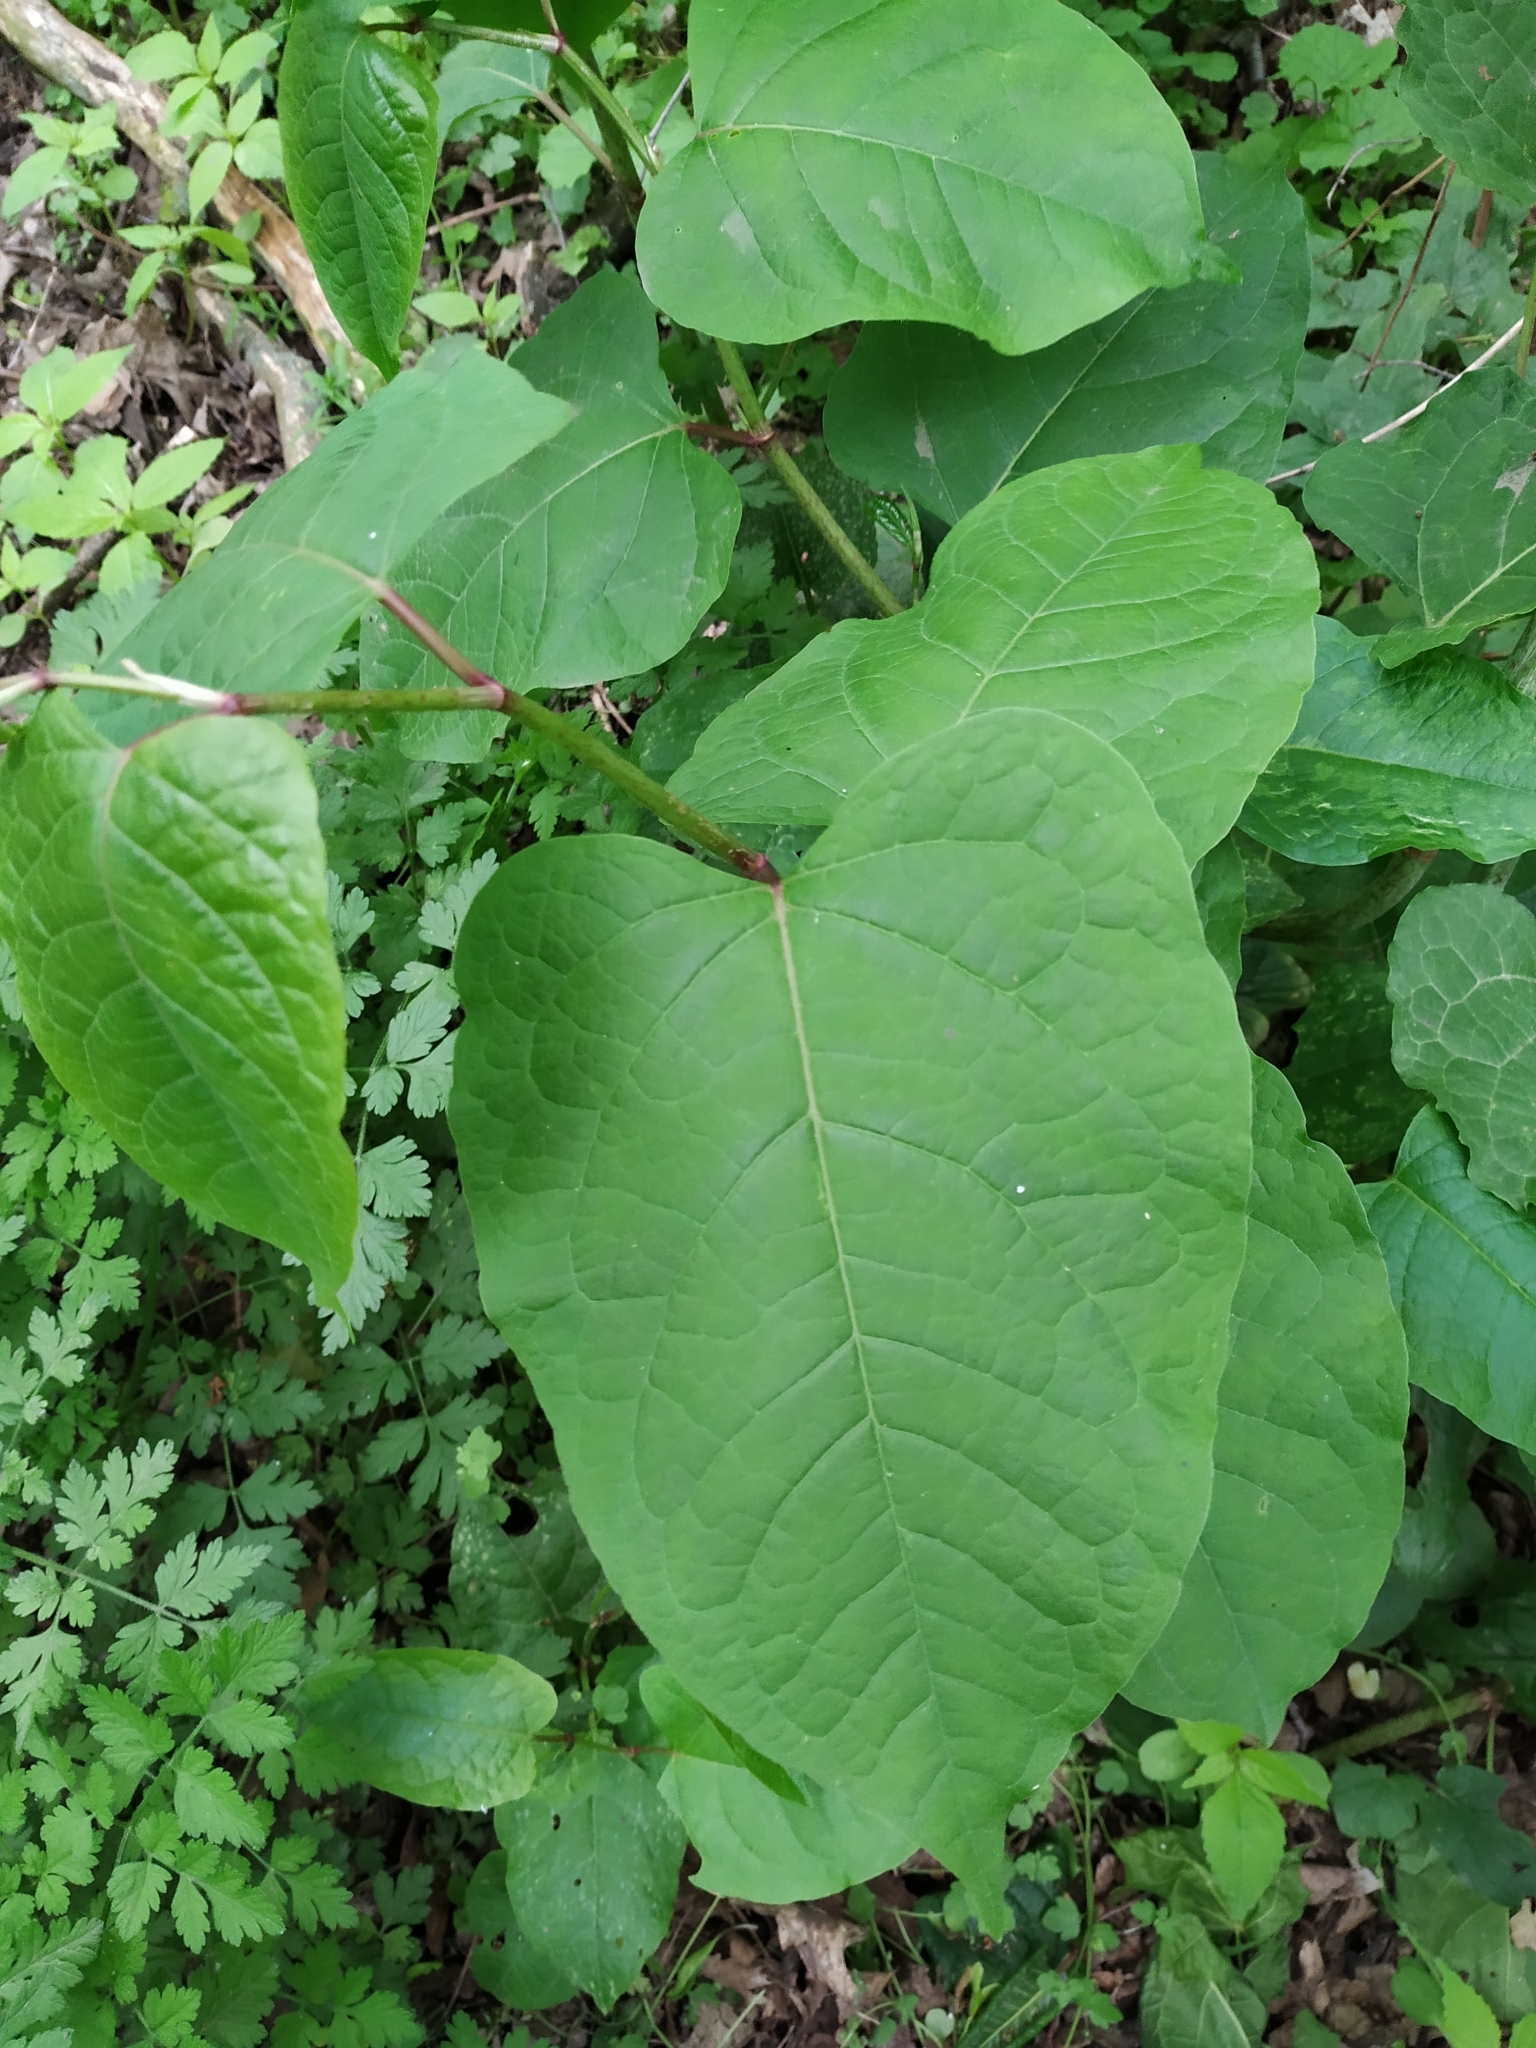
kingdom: Plantae
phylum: Tracheophyta
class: Magnoliopsida
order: Caryophyllales
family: Polygonaceae
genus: Reynoutria
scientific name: Reynoutria bohemica
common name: Bohemian knotweed
